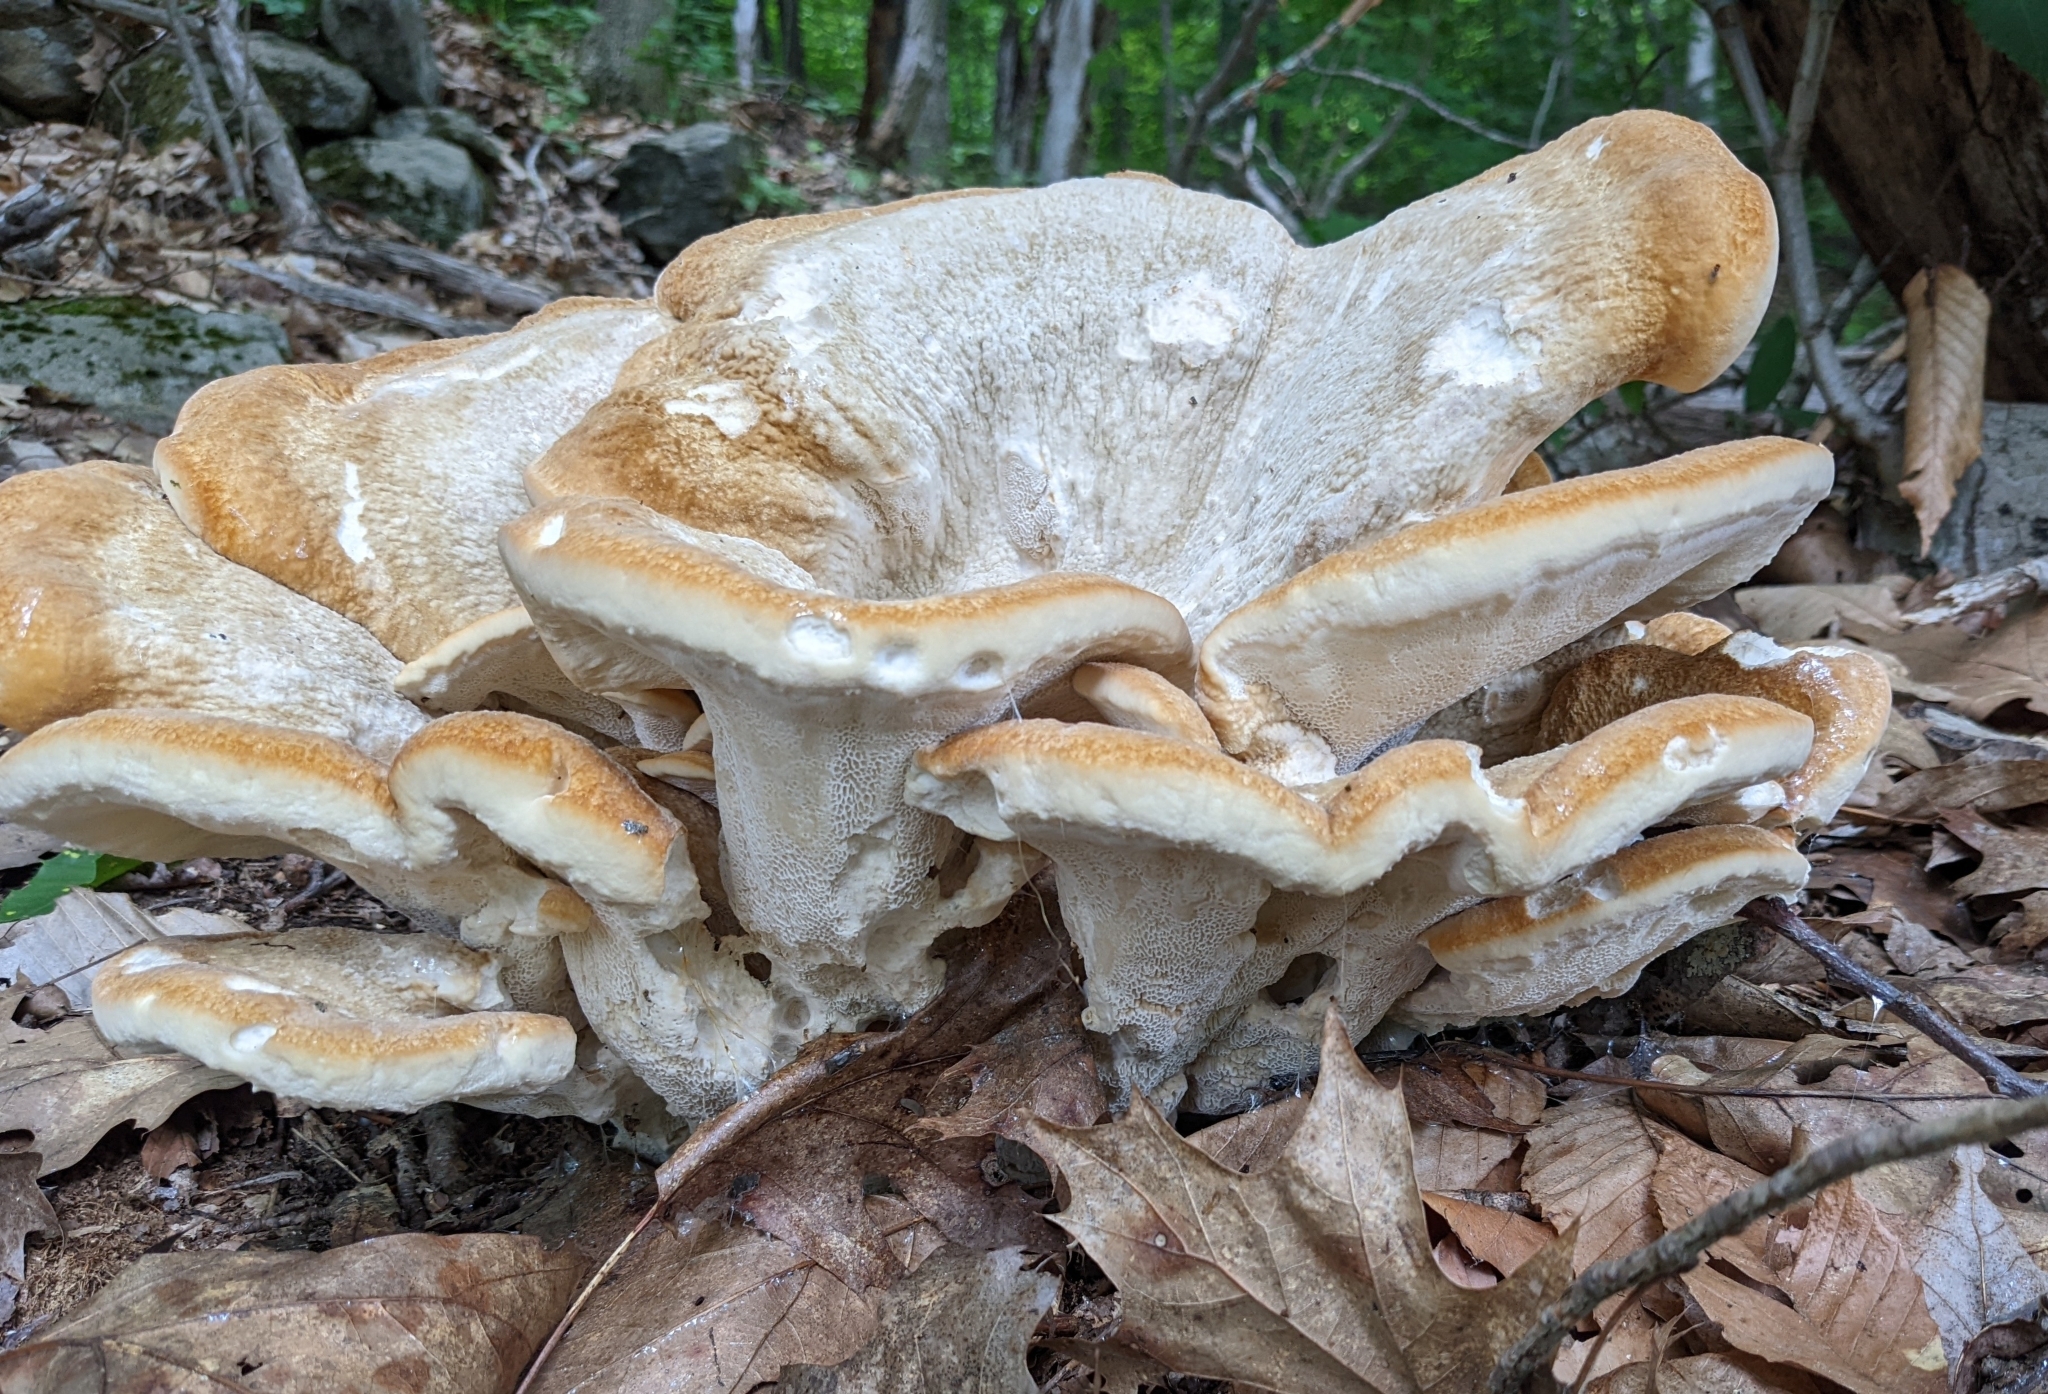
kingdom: Fungi
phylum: Basidiomycota
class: Agaricomycetes
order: Russulales
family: Bondarzewiaceae
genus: Bondarzewia
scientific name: Bondarzewia berkeleyi
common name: Berkeley's polypore
